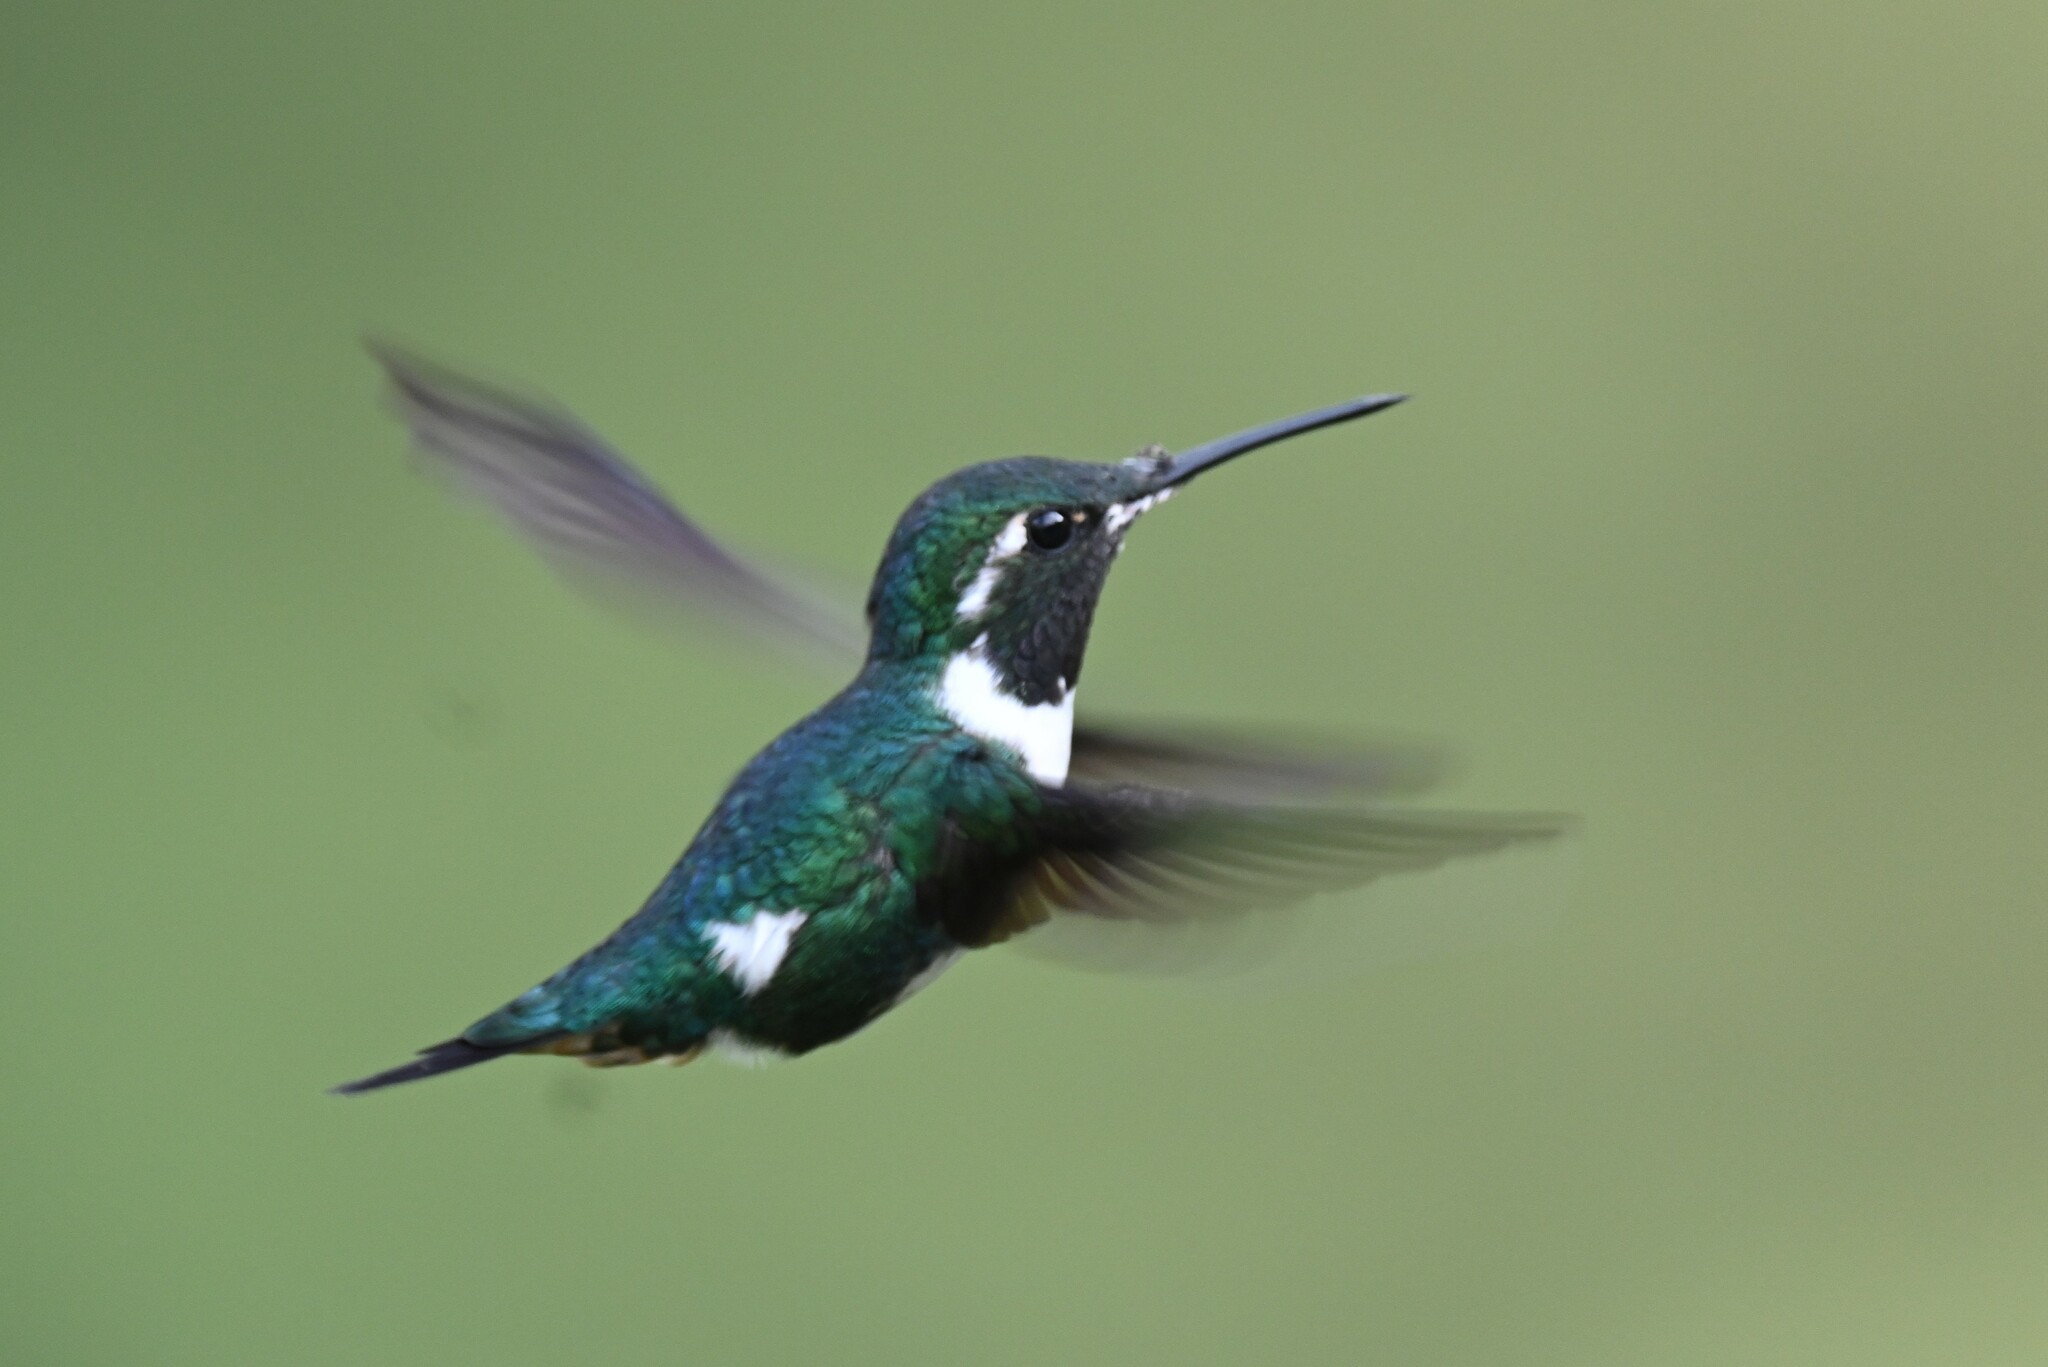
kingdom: Animalia
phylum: Chordata
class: Aves
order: Apodiformes
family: Trochilidae
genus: Chaetocercus
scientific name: Chaetocercus mulsant
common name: White-bellied woodstar
